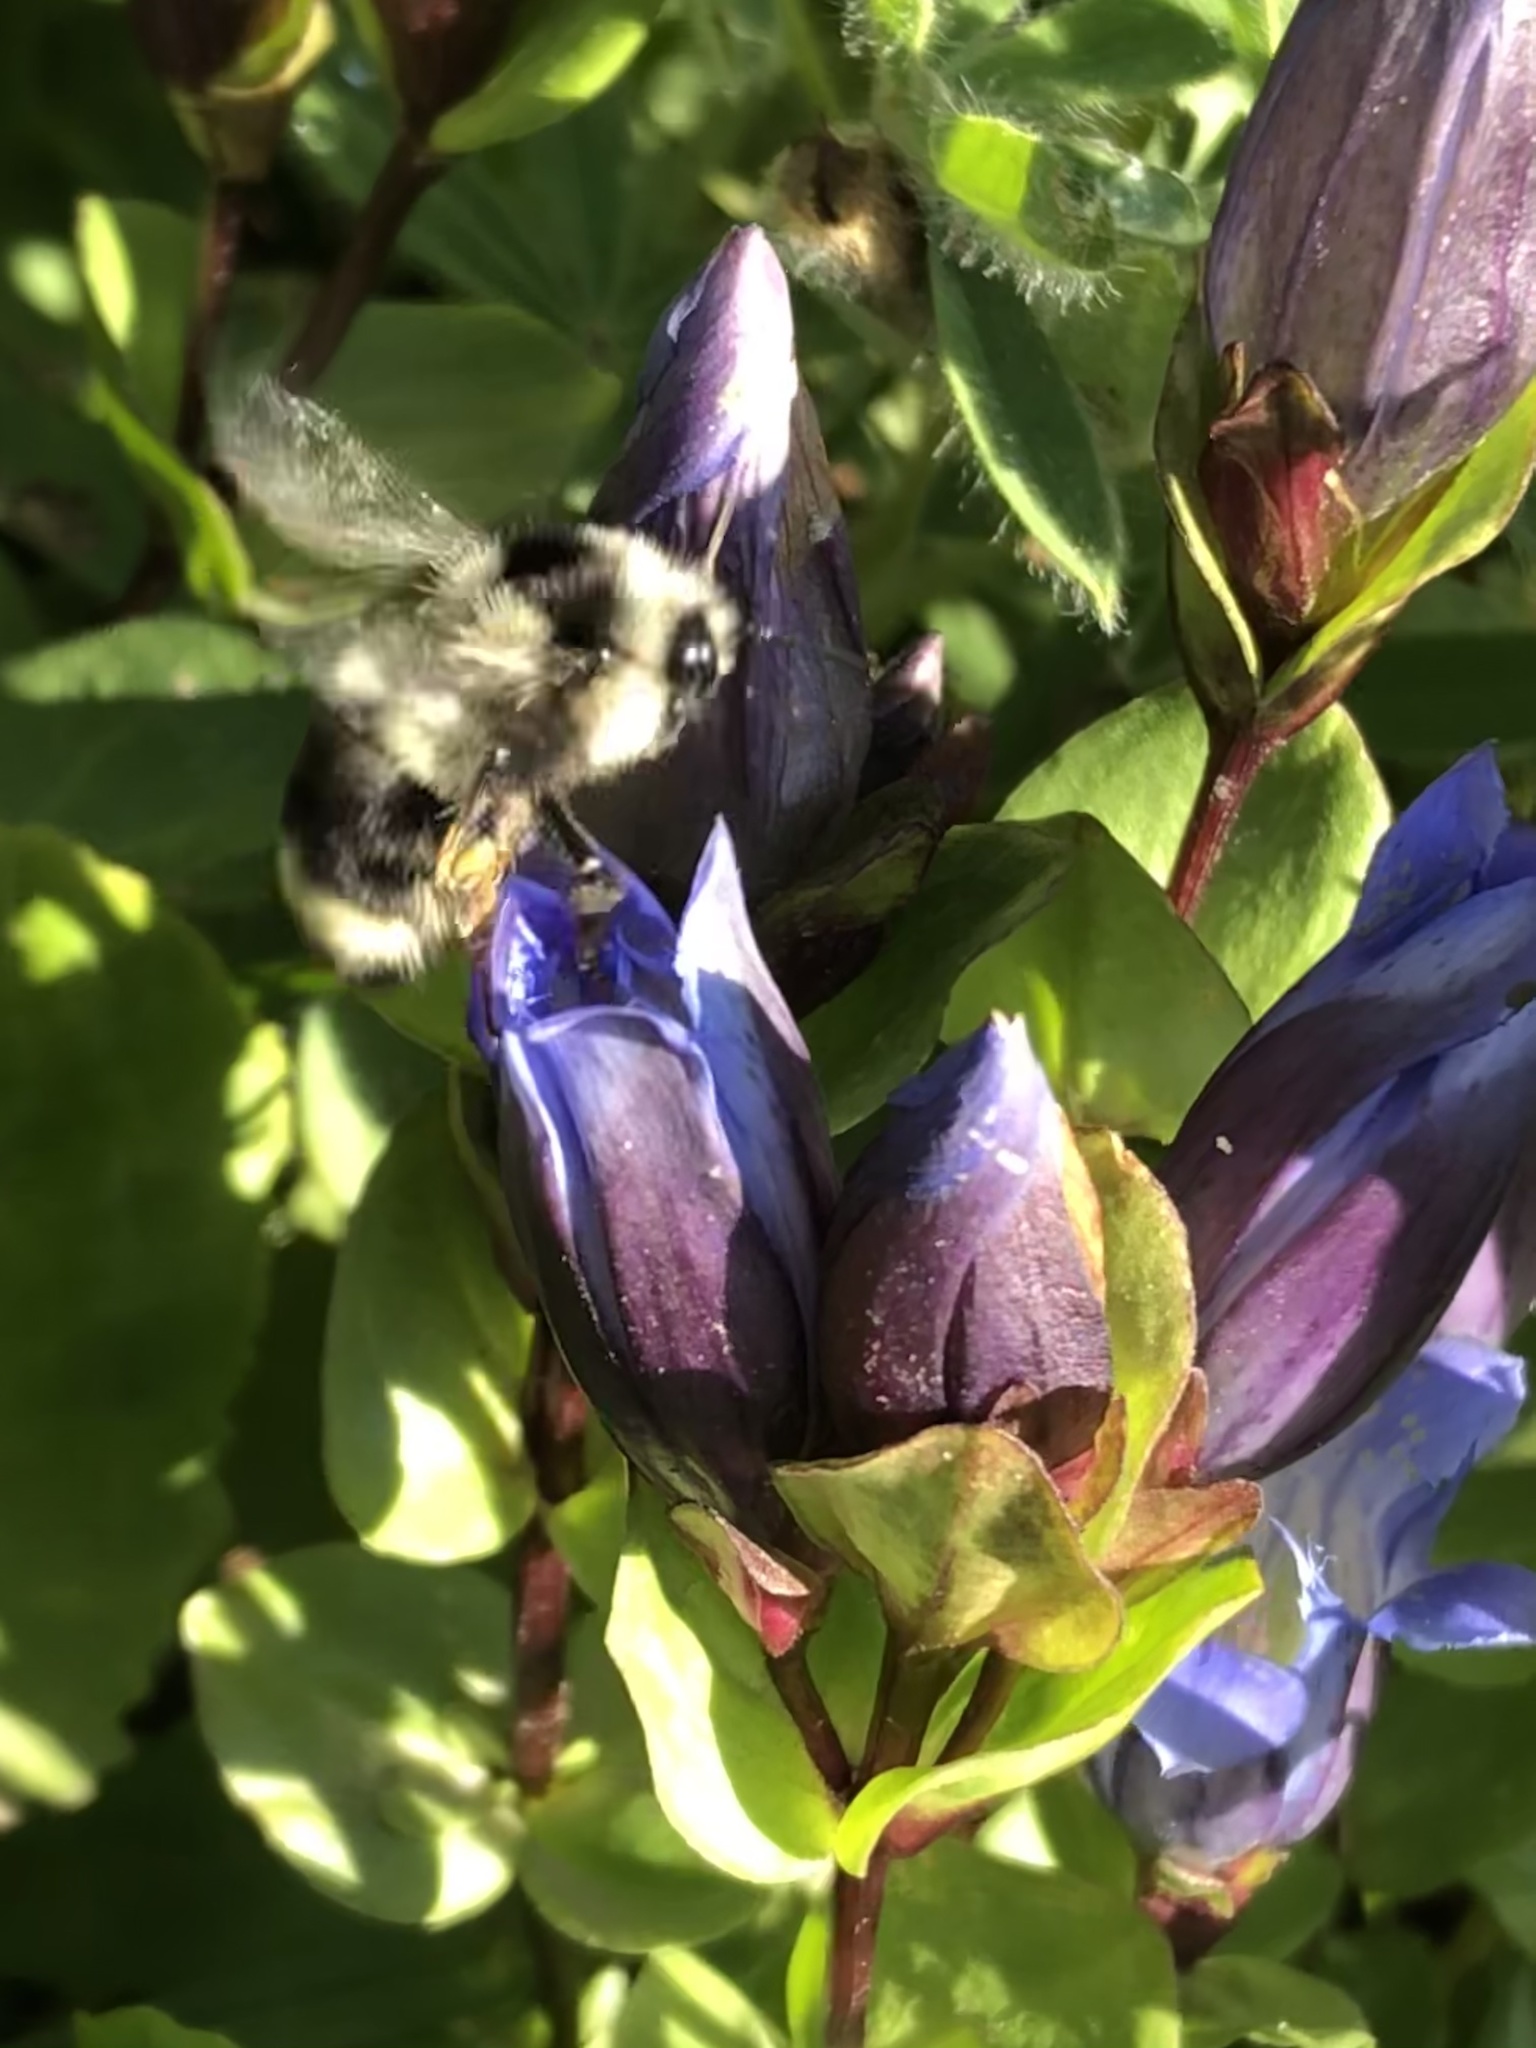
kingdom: Animalia
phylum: Arthropoda
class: Insecta
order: Hymenoptera
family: Apidae
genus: Bombus
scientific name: Bombus vancouverensis
